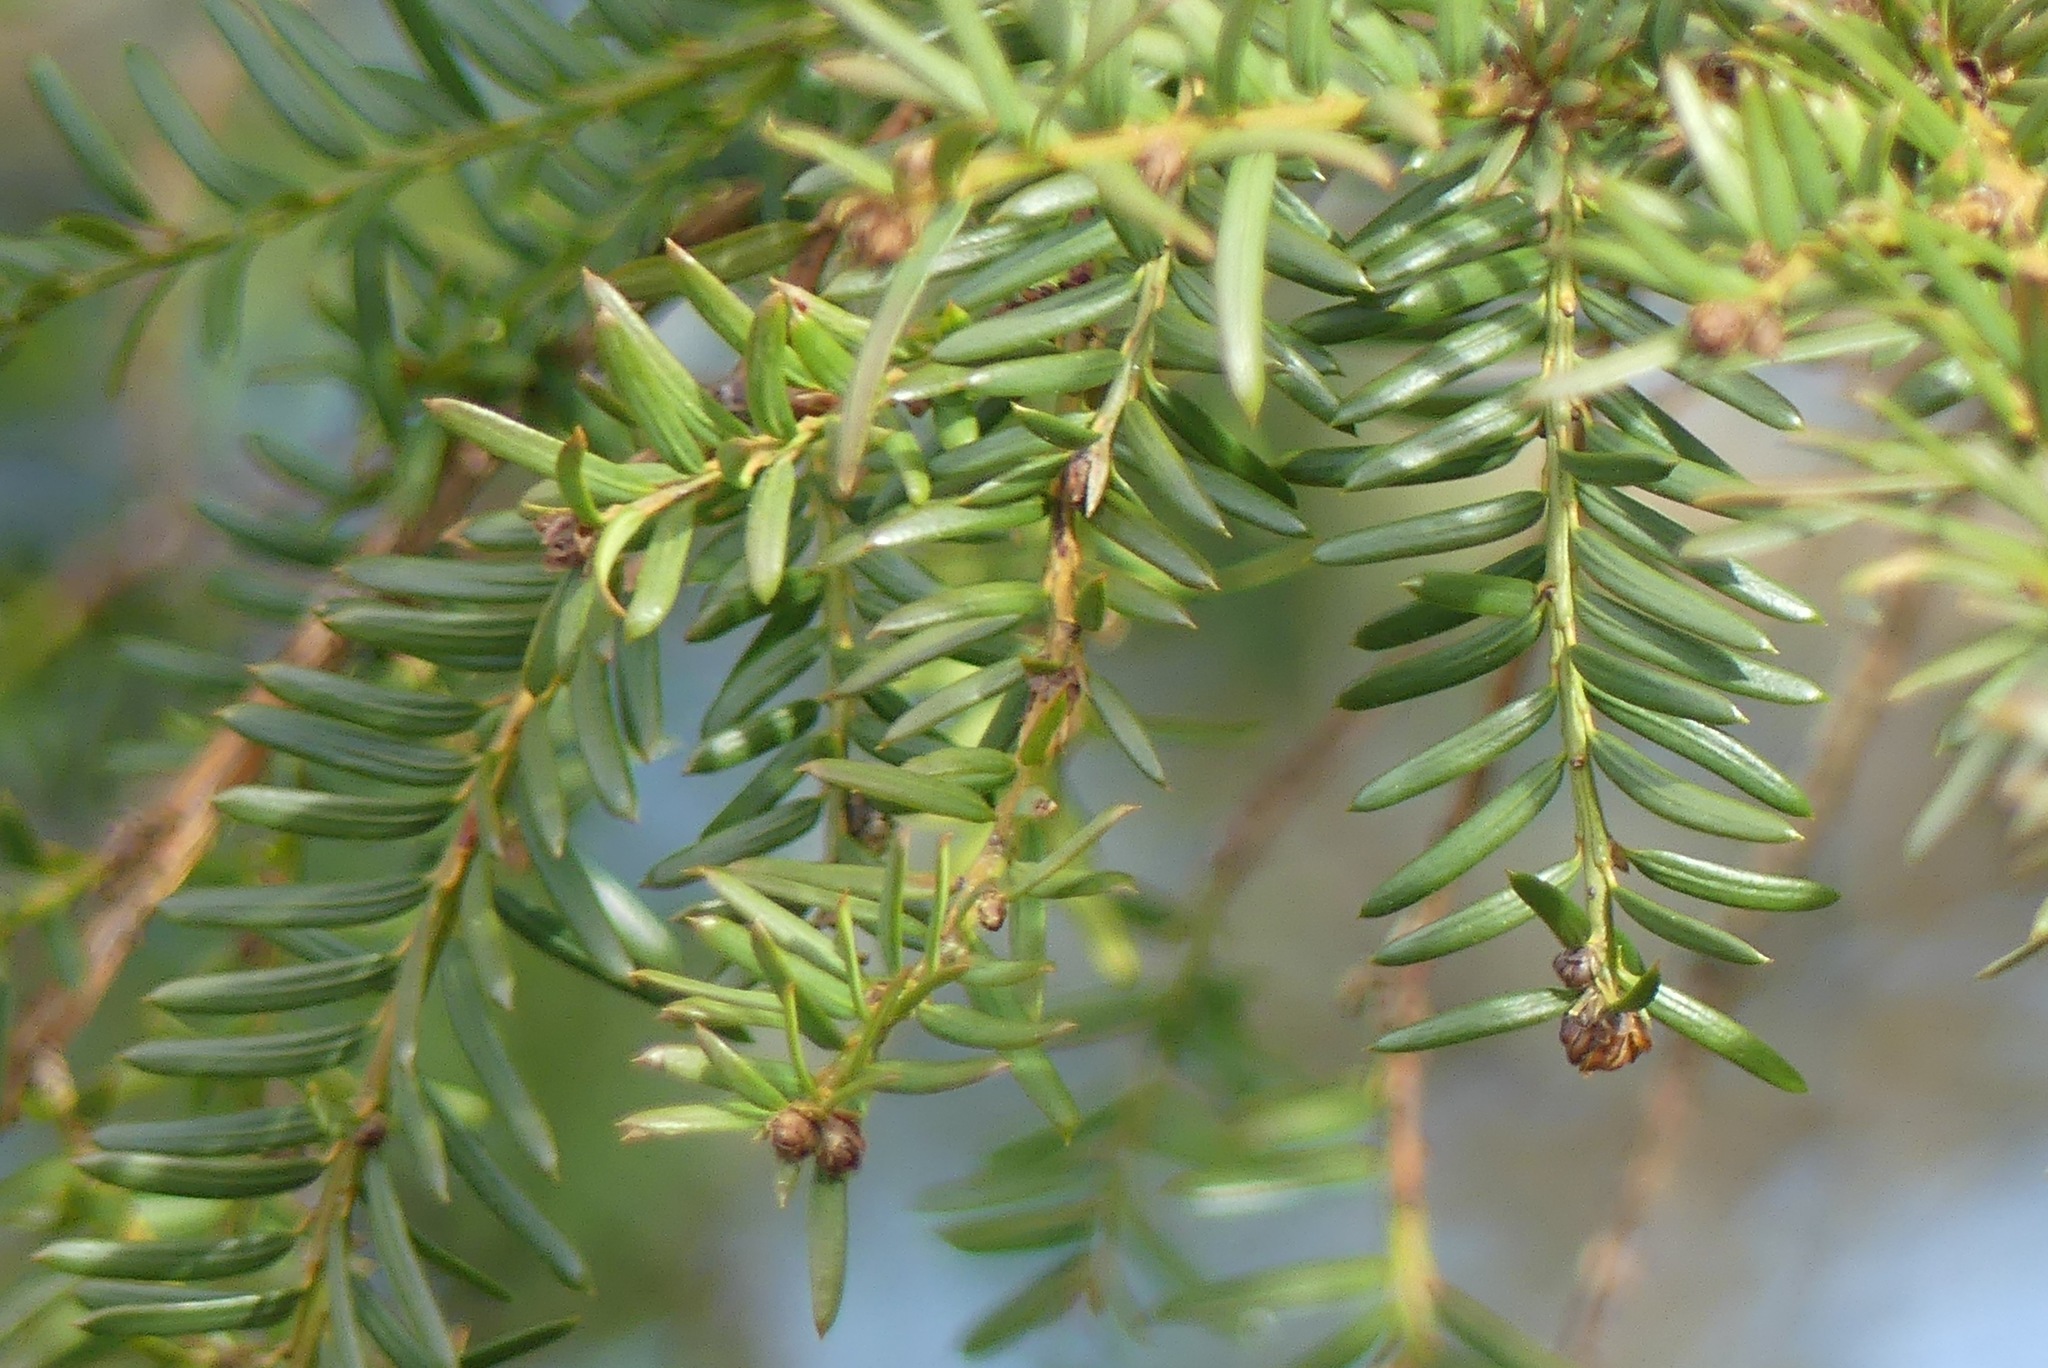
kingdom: Plantae
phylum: Tracheophyta
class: Pinopsida
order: Pinales
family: Taxaceae
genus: Taxus
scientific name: Taxus brevifolia
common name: Pacific yew
